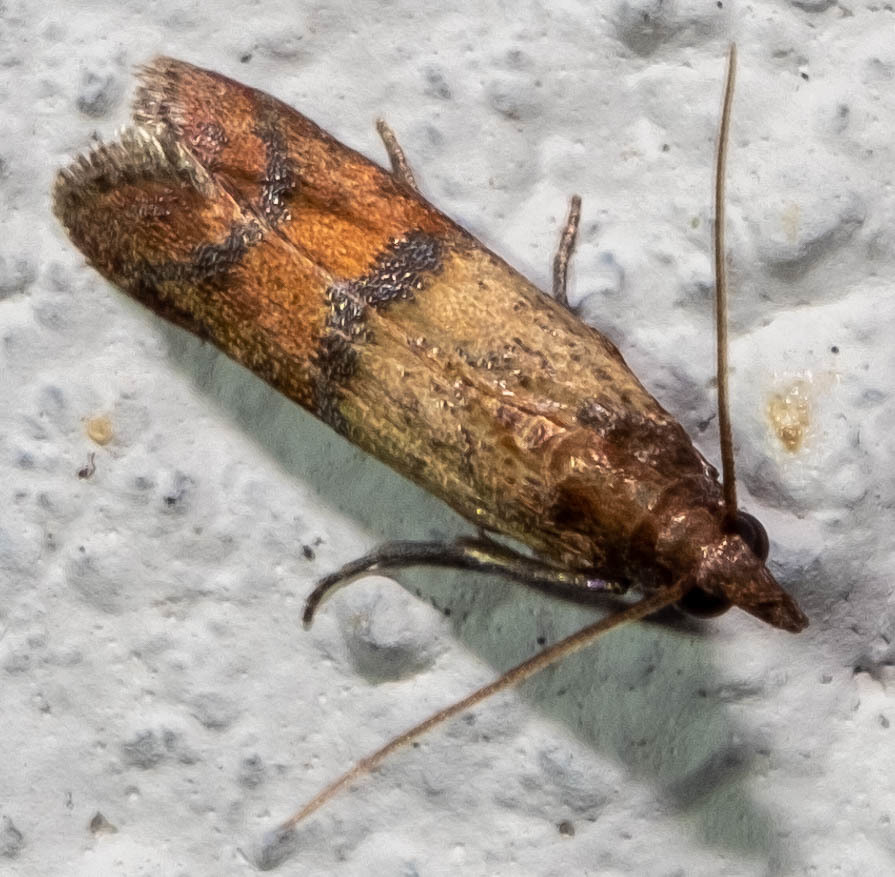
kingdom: Animalia
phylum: Arthropoda
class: Insecta
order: Lepidoptera
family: Pyralidae
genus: Plodia
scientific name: Plodia interpunctella
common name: Indian meal moth
